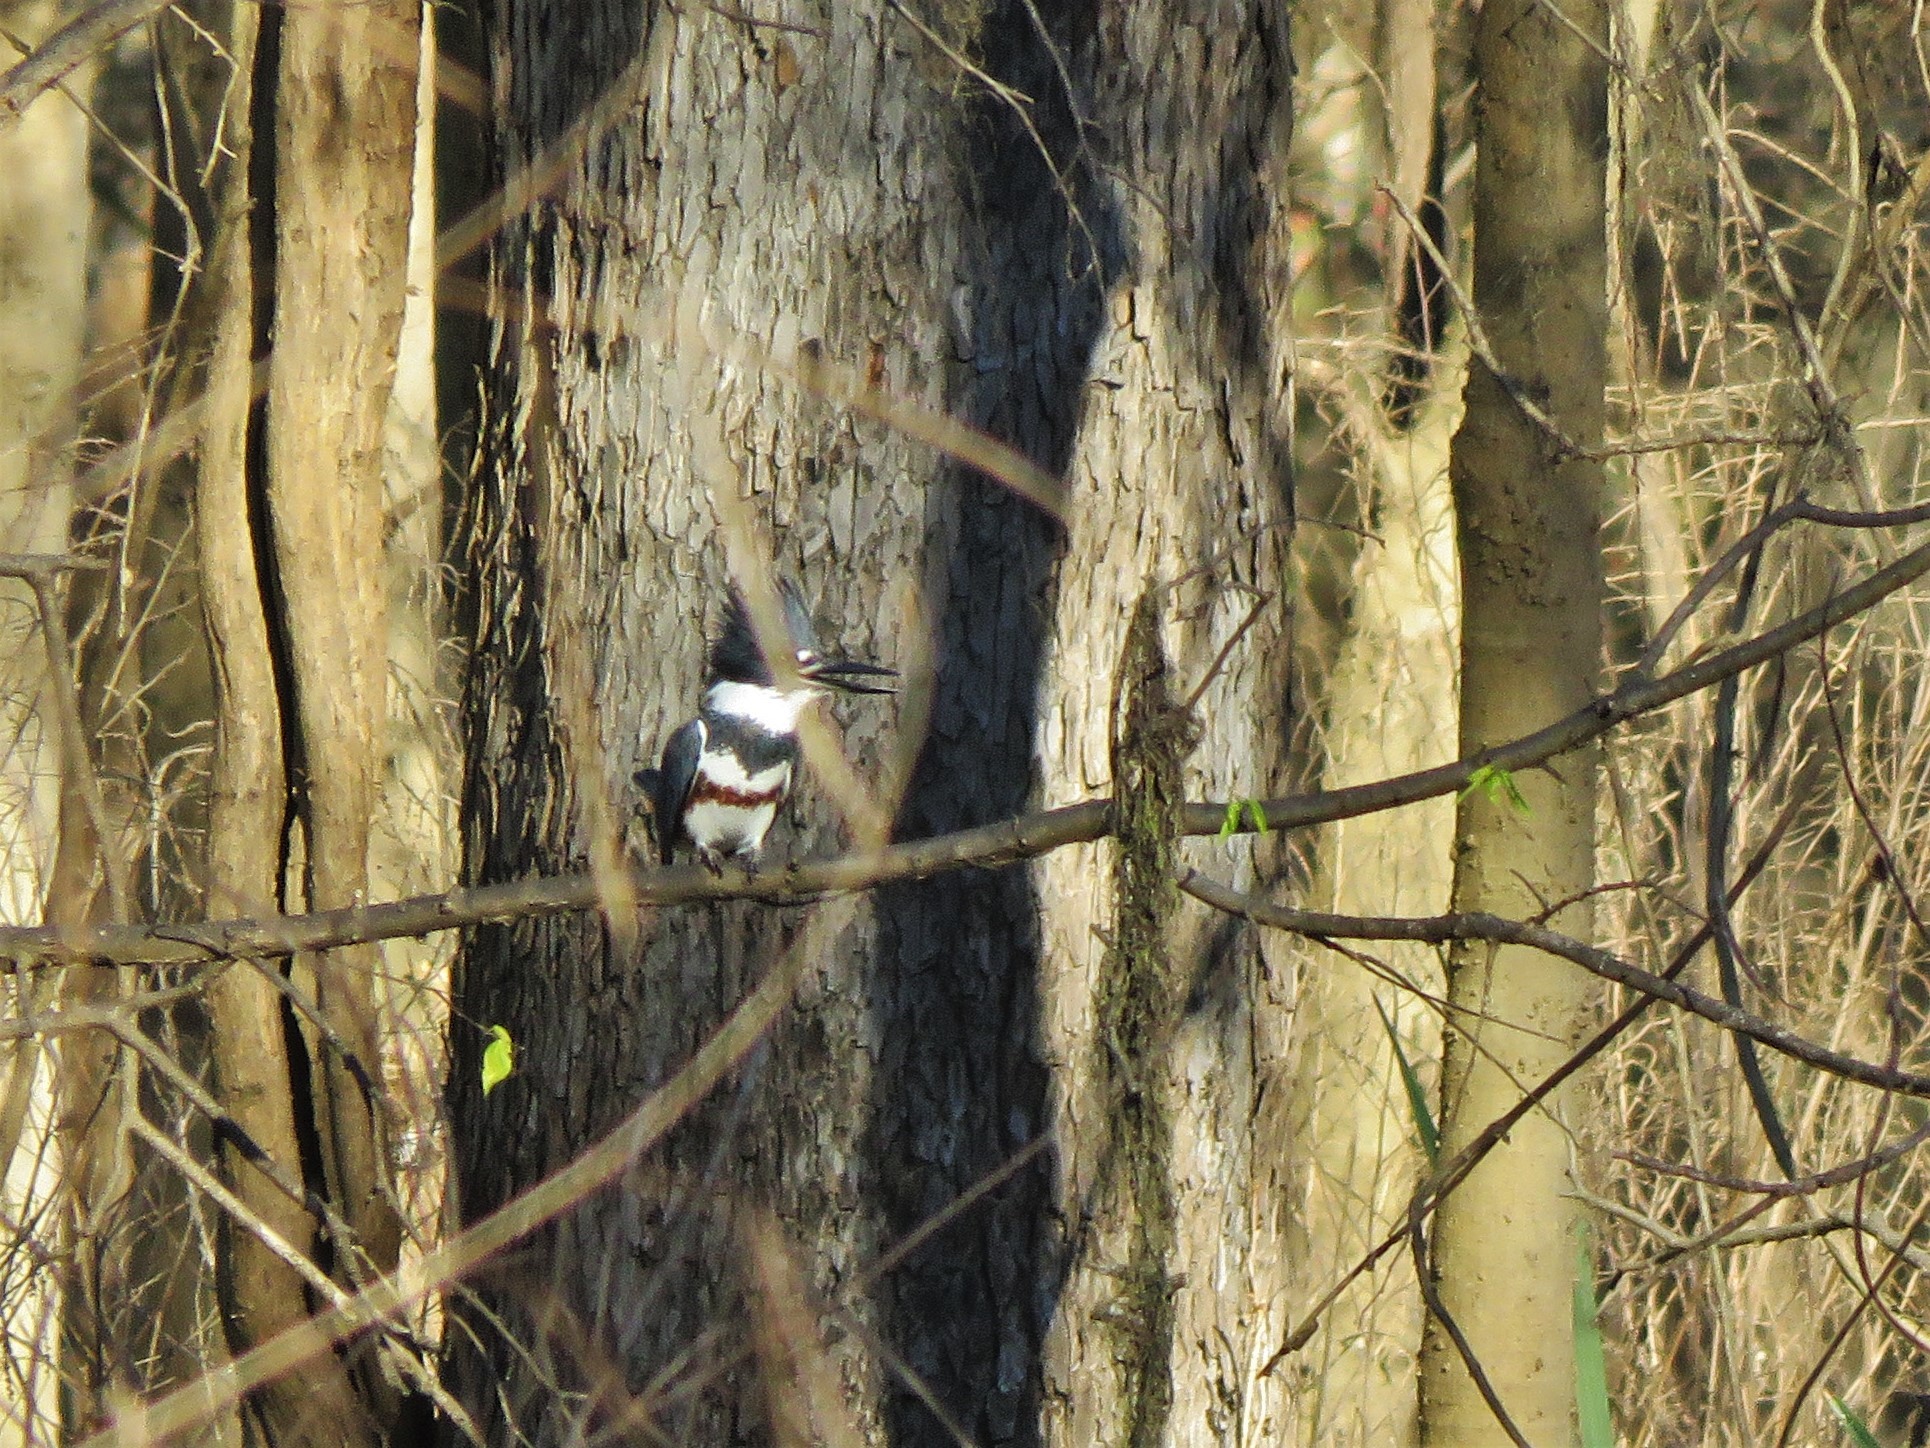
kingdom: Animalia
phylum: Chordata
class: Aves
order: Coraciiformes
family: Alcedinidae
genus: Megaceryle
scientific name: Megaceryle alcyon
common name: Belted kingfisher
